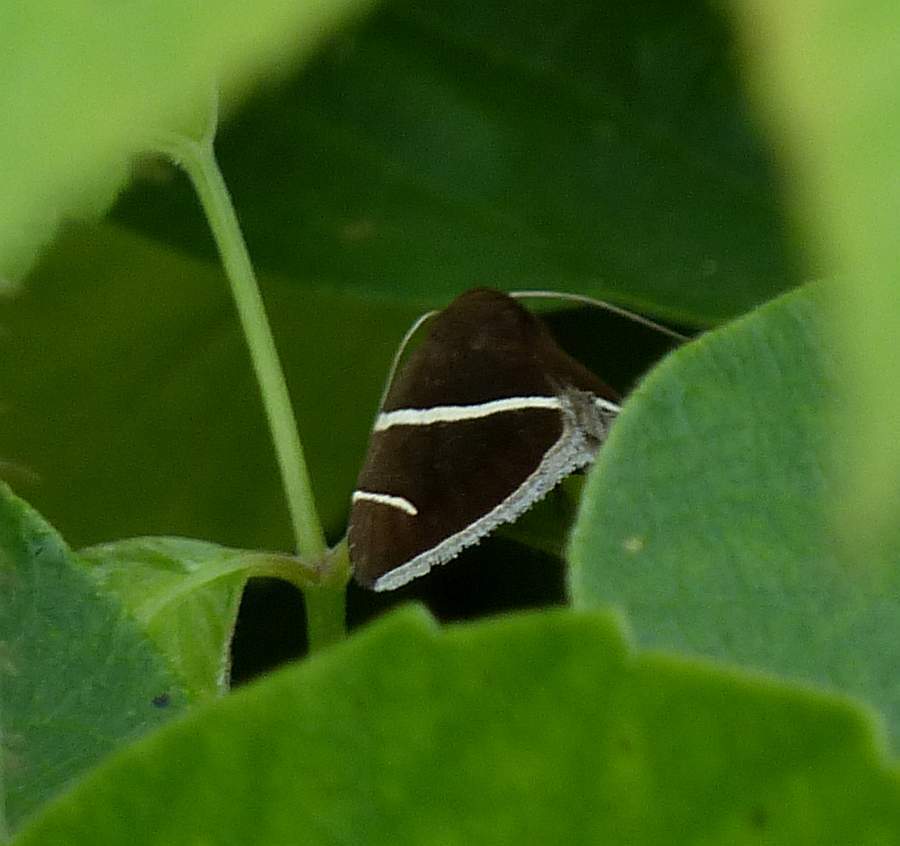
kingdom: Animalia
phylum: Arthropoda
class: Insecta
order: Lepidoptera
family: Erebidae
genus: Argyrostrotis
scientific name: Argyrostrotis anilis
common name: Short-lined chocolate
